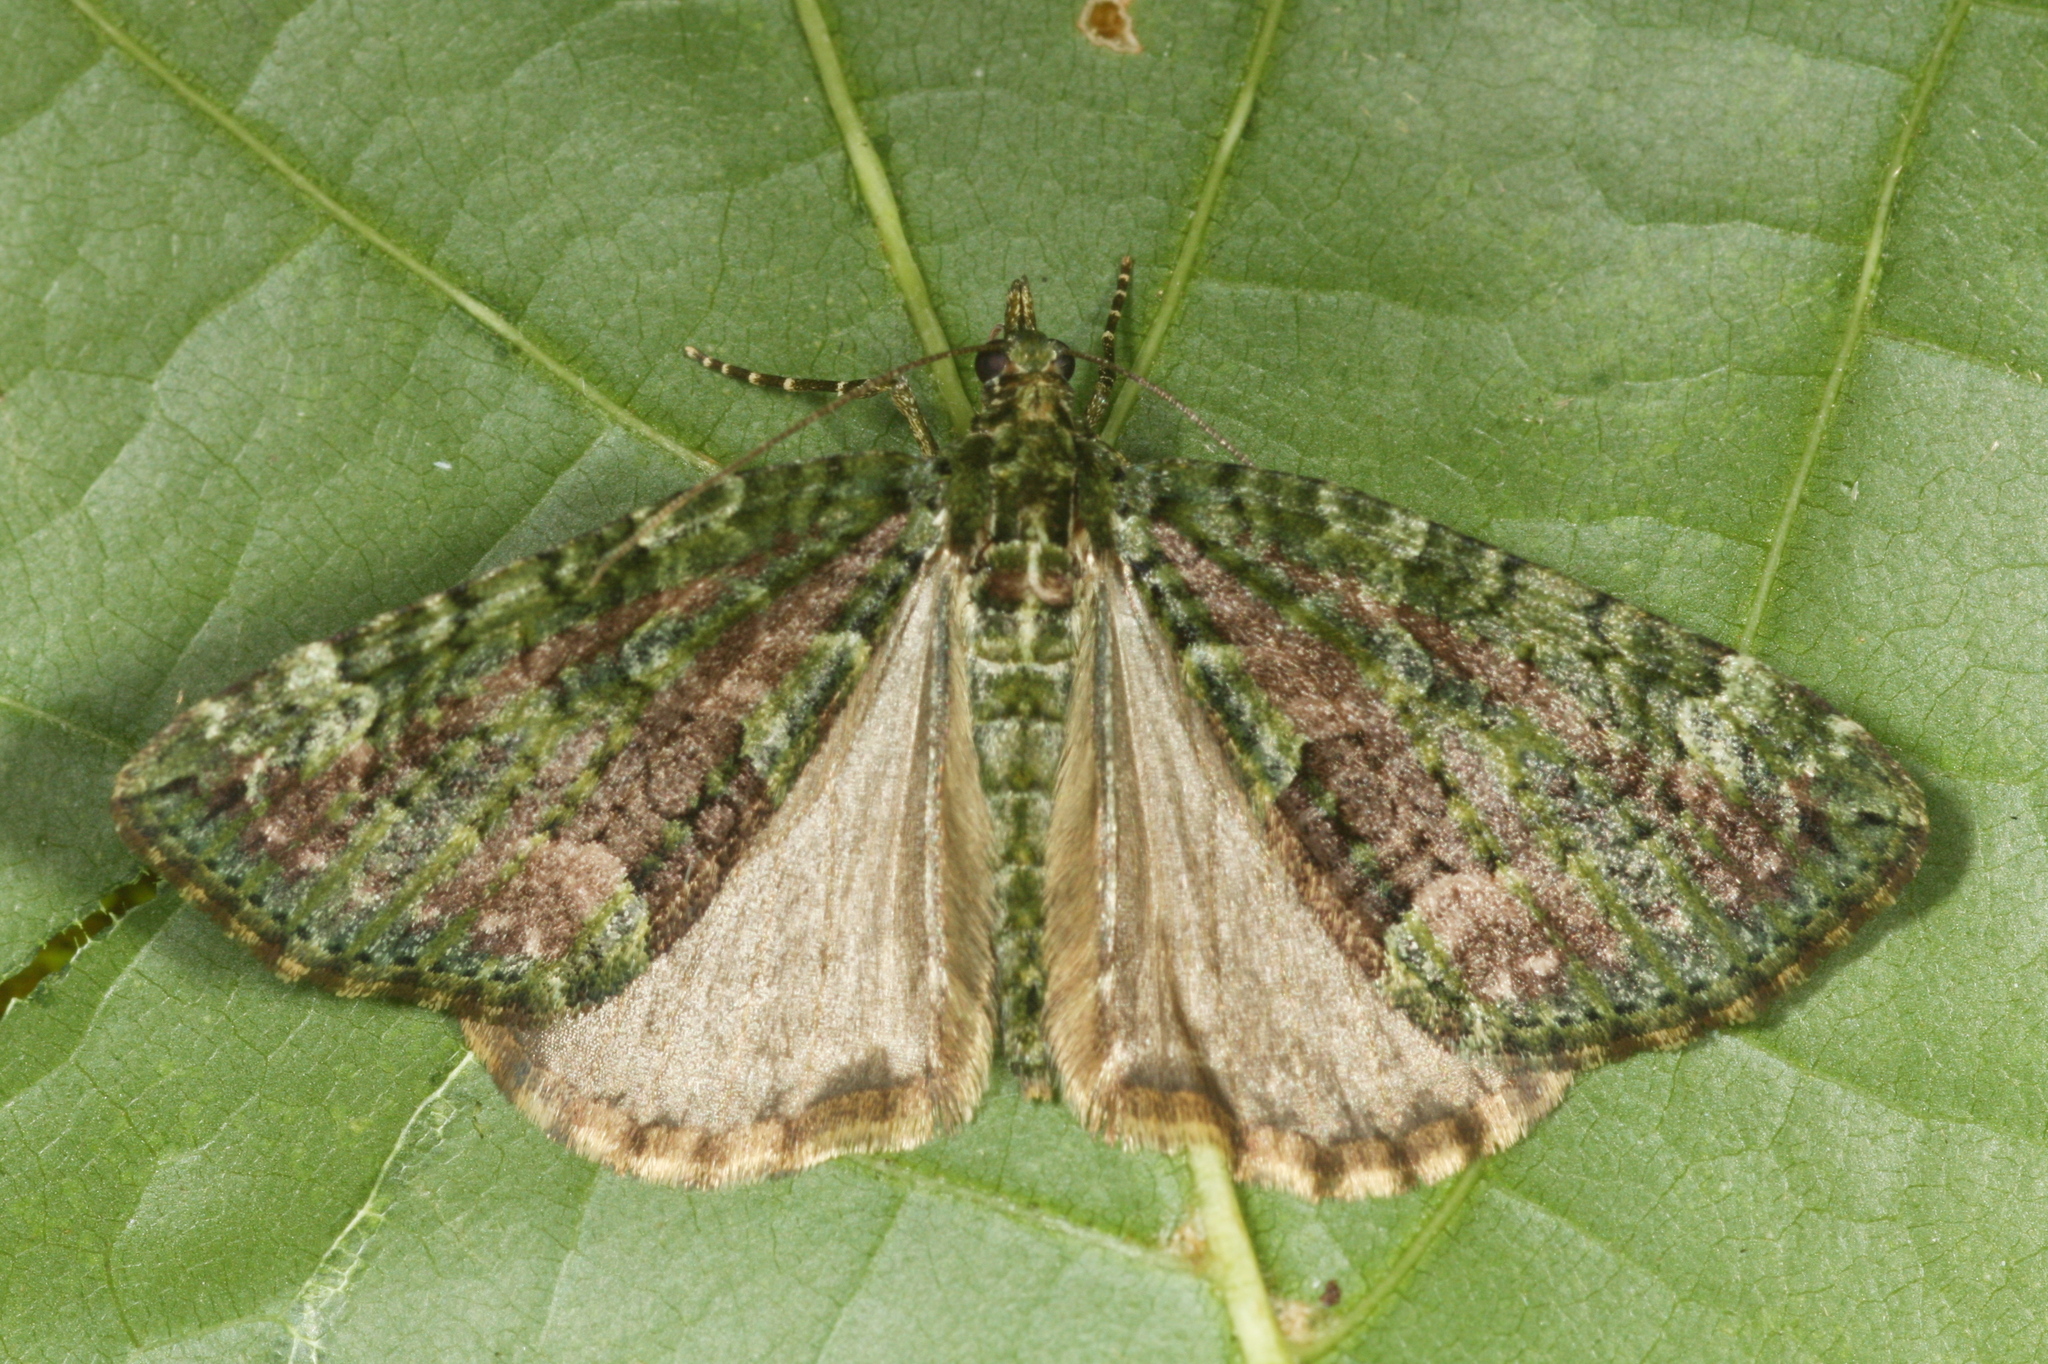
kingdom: Animalia
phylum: Arthropoda
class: Insecta
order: Lepidoptera
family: Geometridae
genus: Chloroclysta
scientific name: Chloroclysta siterata
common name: Red-green carpet
